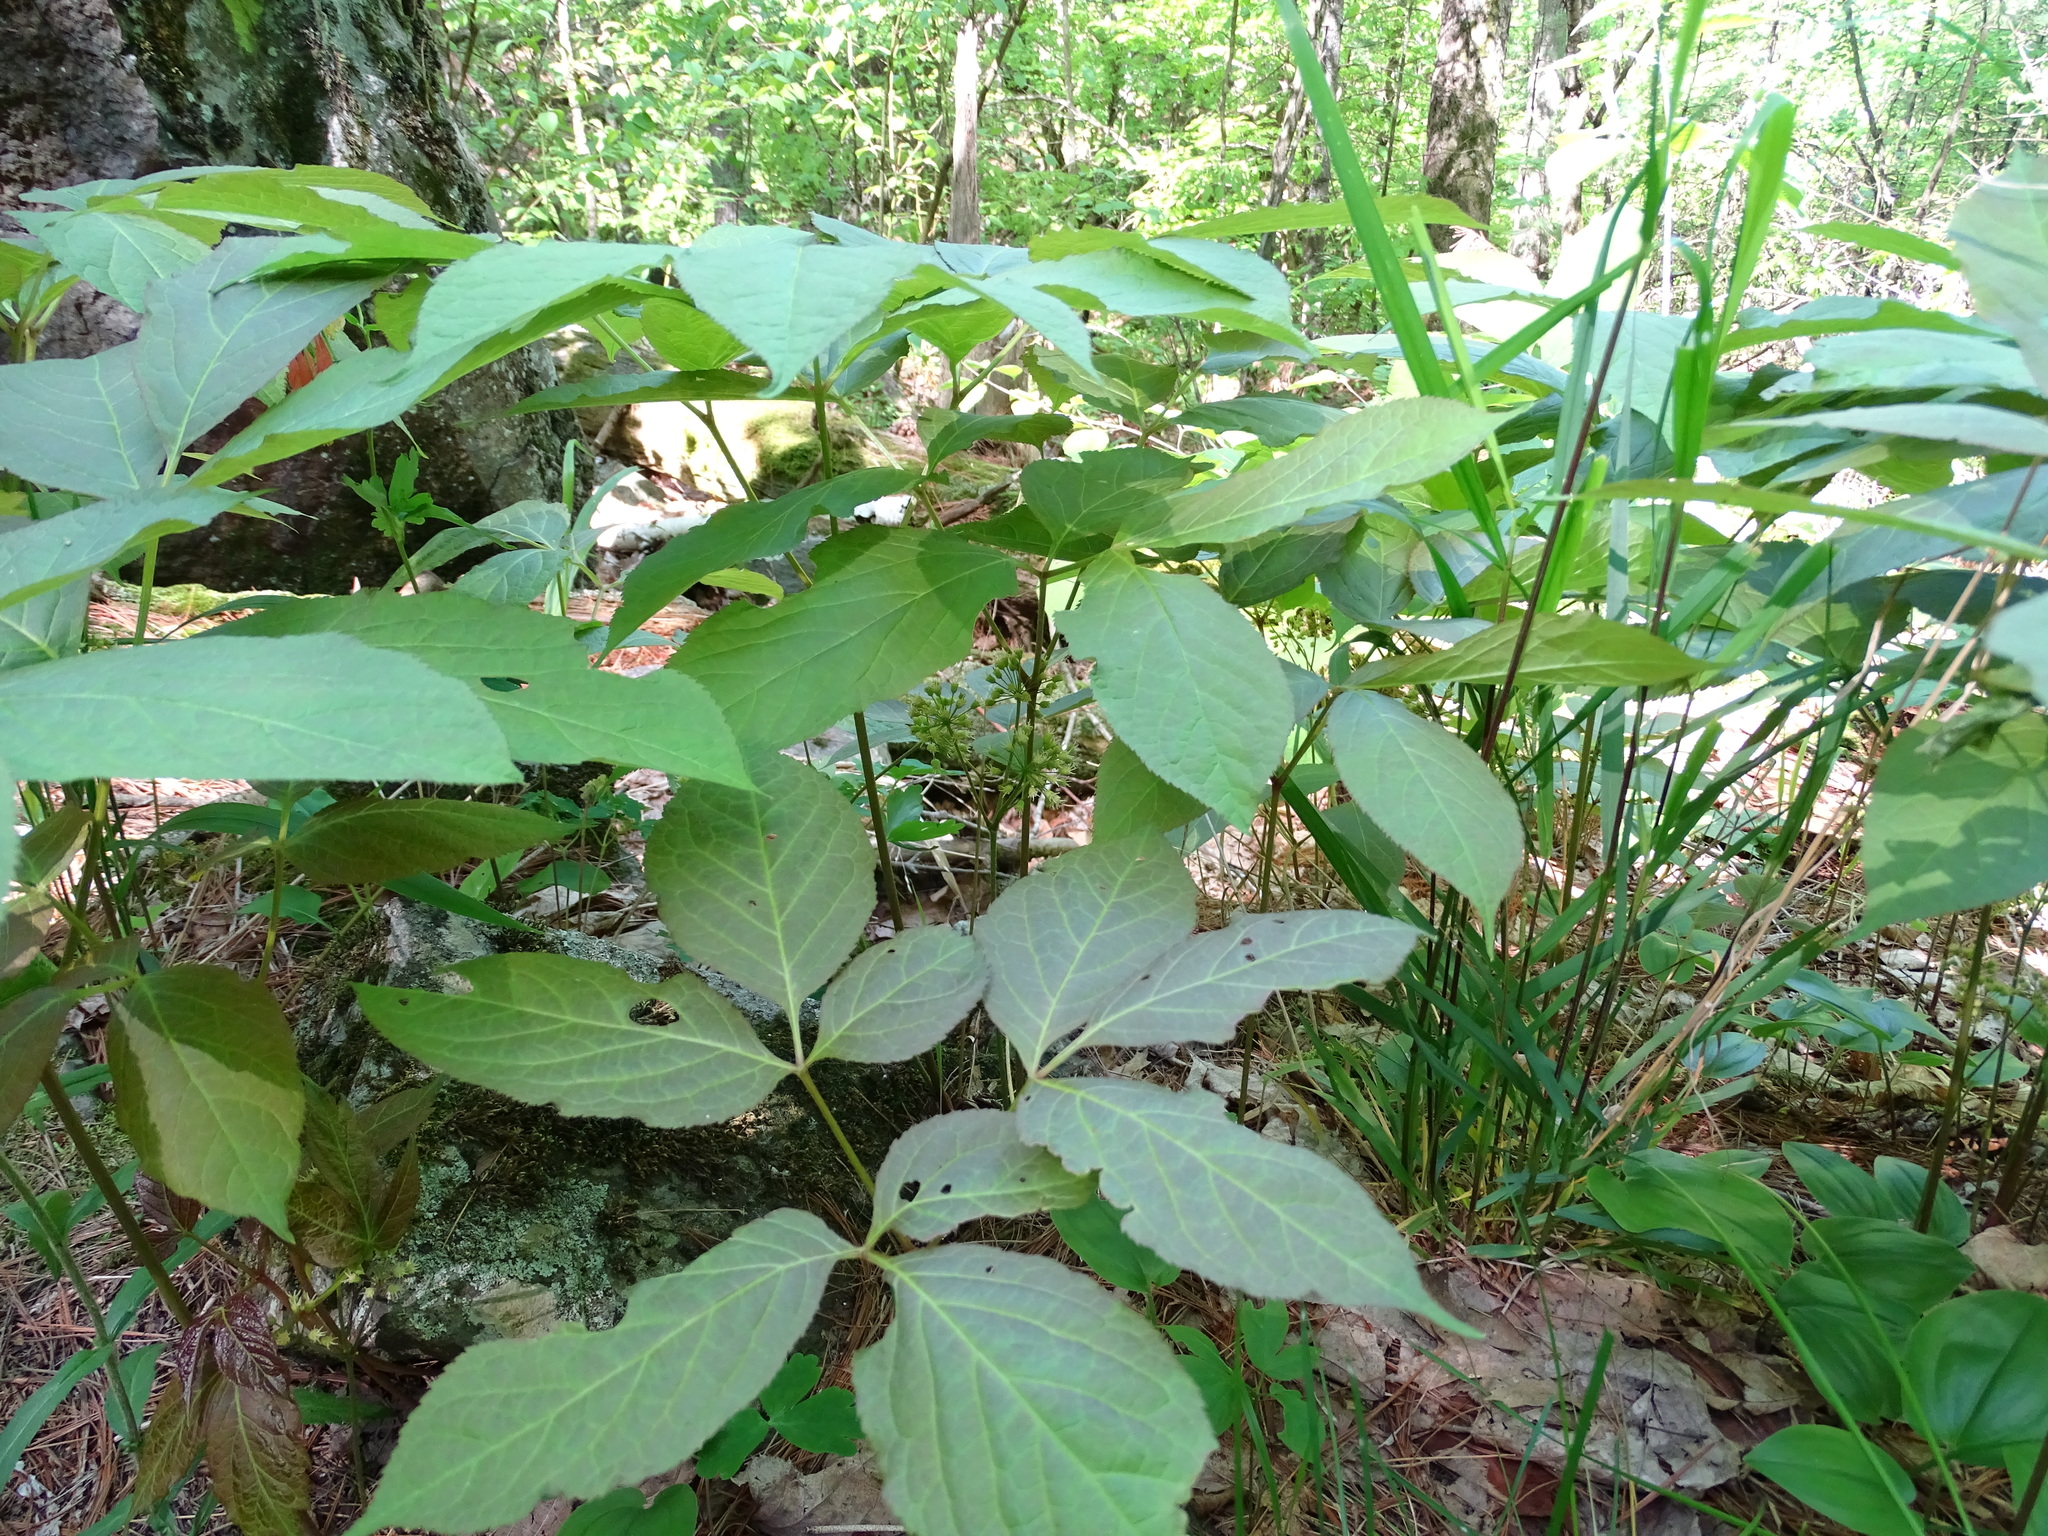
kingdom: Plantae
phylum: Tracheophyta
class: Magnoliopsida
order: Apiales
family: Araliaceae
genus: Aralia
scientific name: Aralia nudicaulis
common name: Wild sarsaparilla
